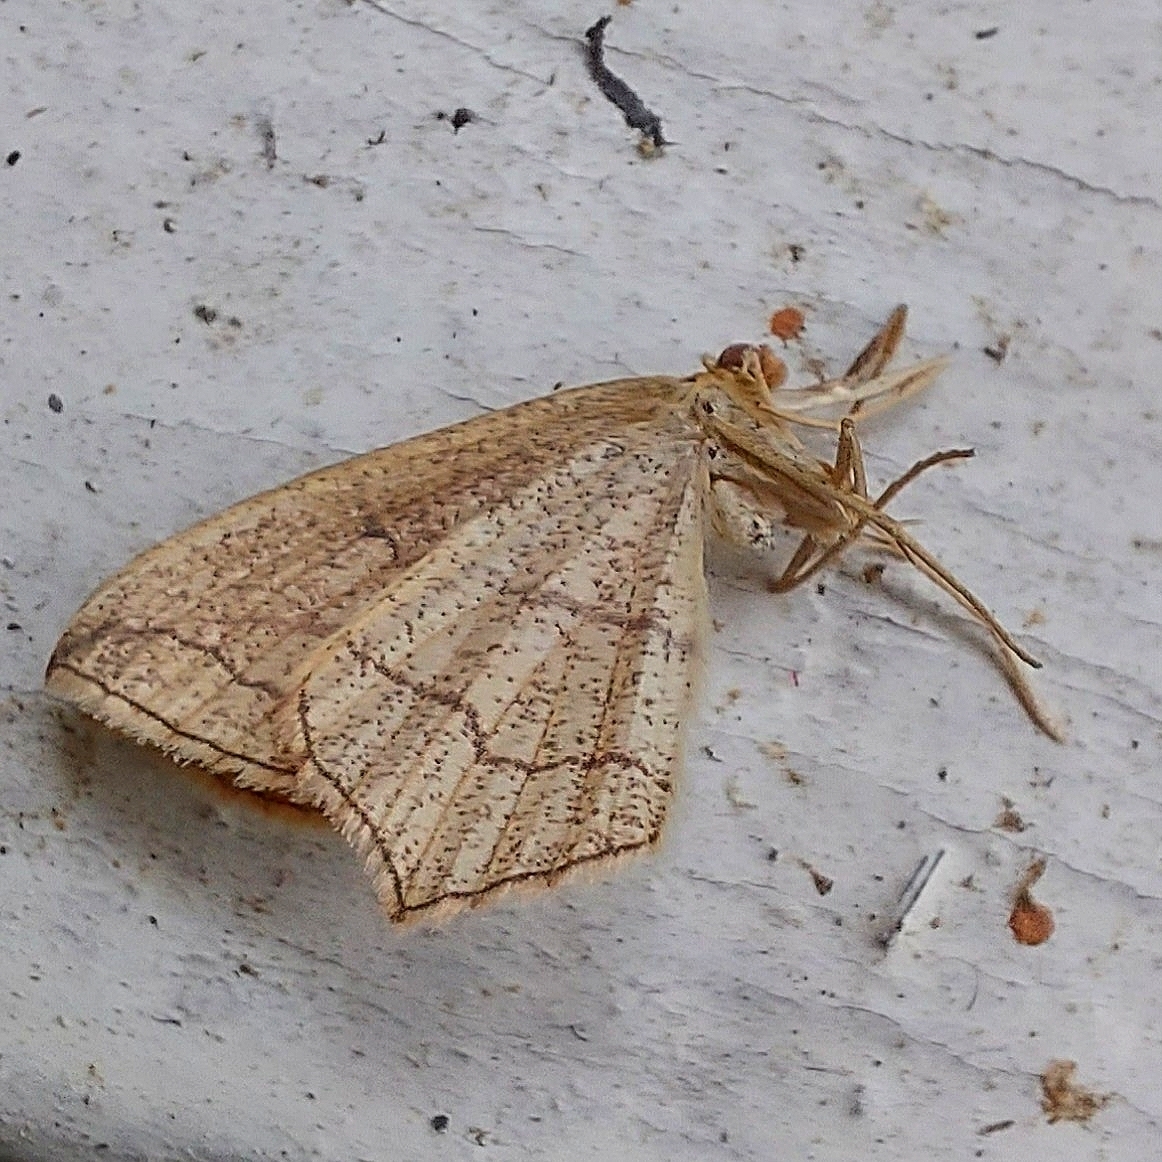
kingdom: Animalia
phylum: Arthropoda
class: Insecta
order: Lepidoptera
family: Geometridae
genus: Timandra
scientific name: Timandra comae
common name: Blood-vein
